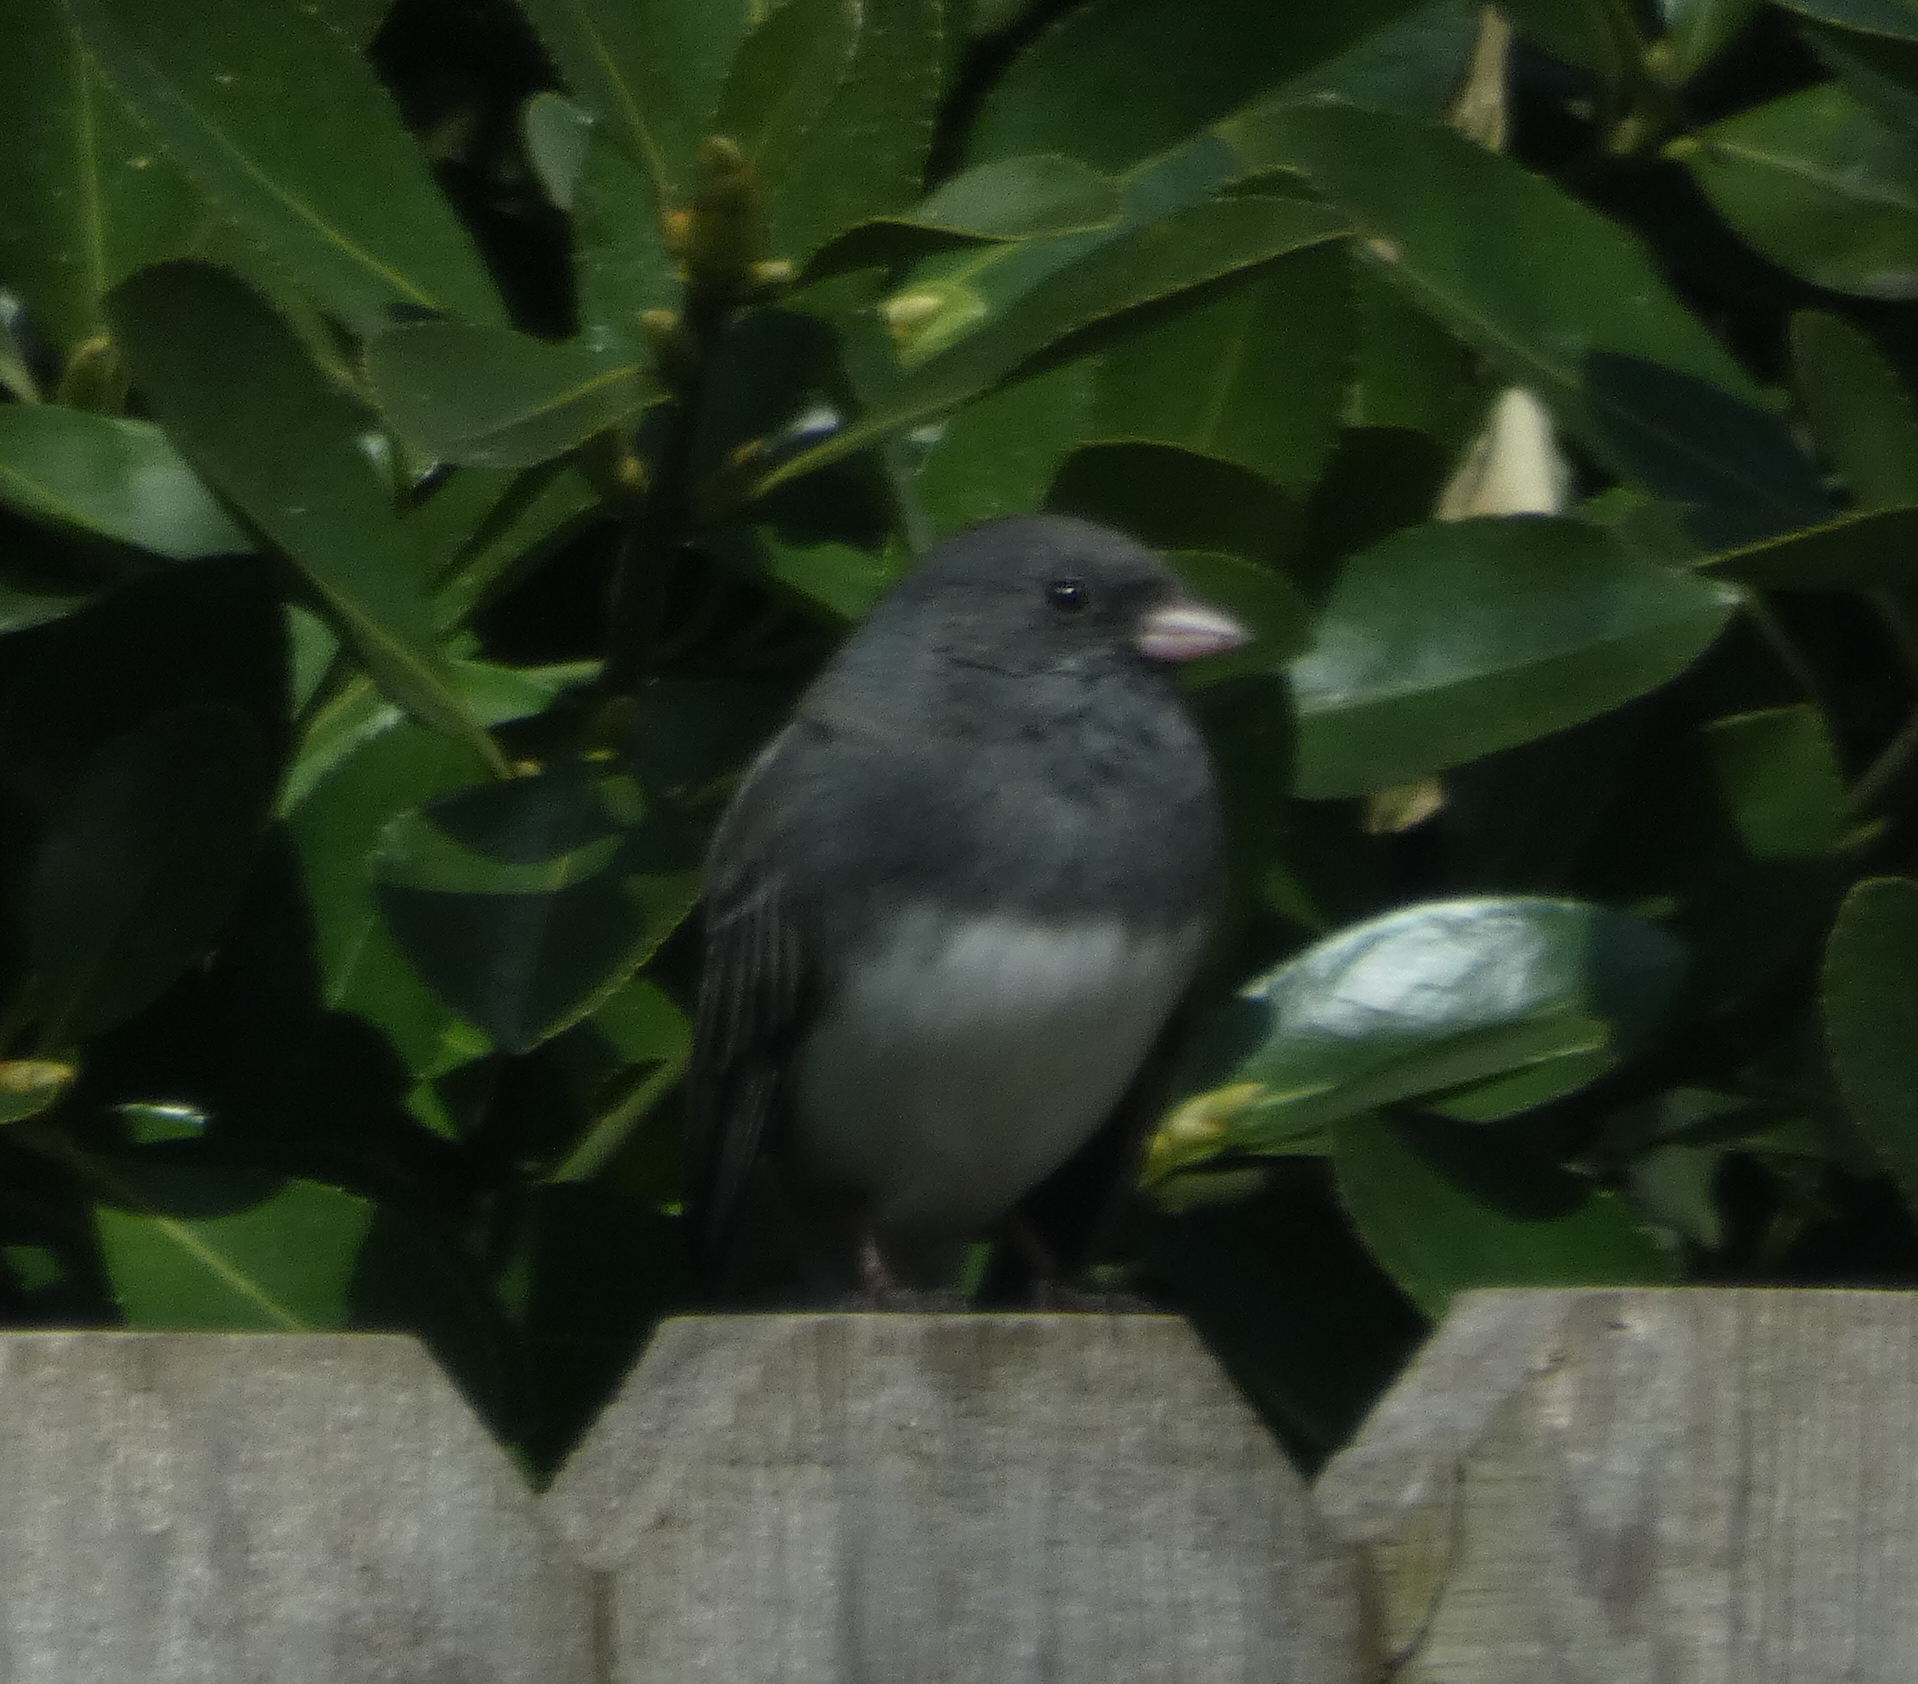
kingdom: Animalia
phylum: Chordata
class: Aves
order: Passeriformes
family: Passerellidae
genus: Junco
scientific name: Junco hyemalis
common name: Dark-eyed junco
